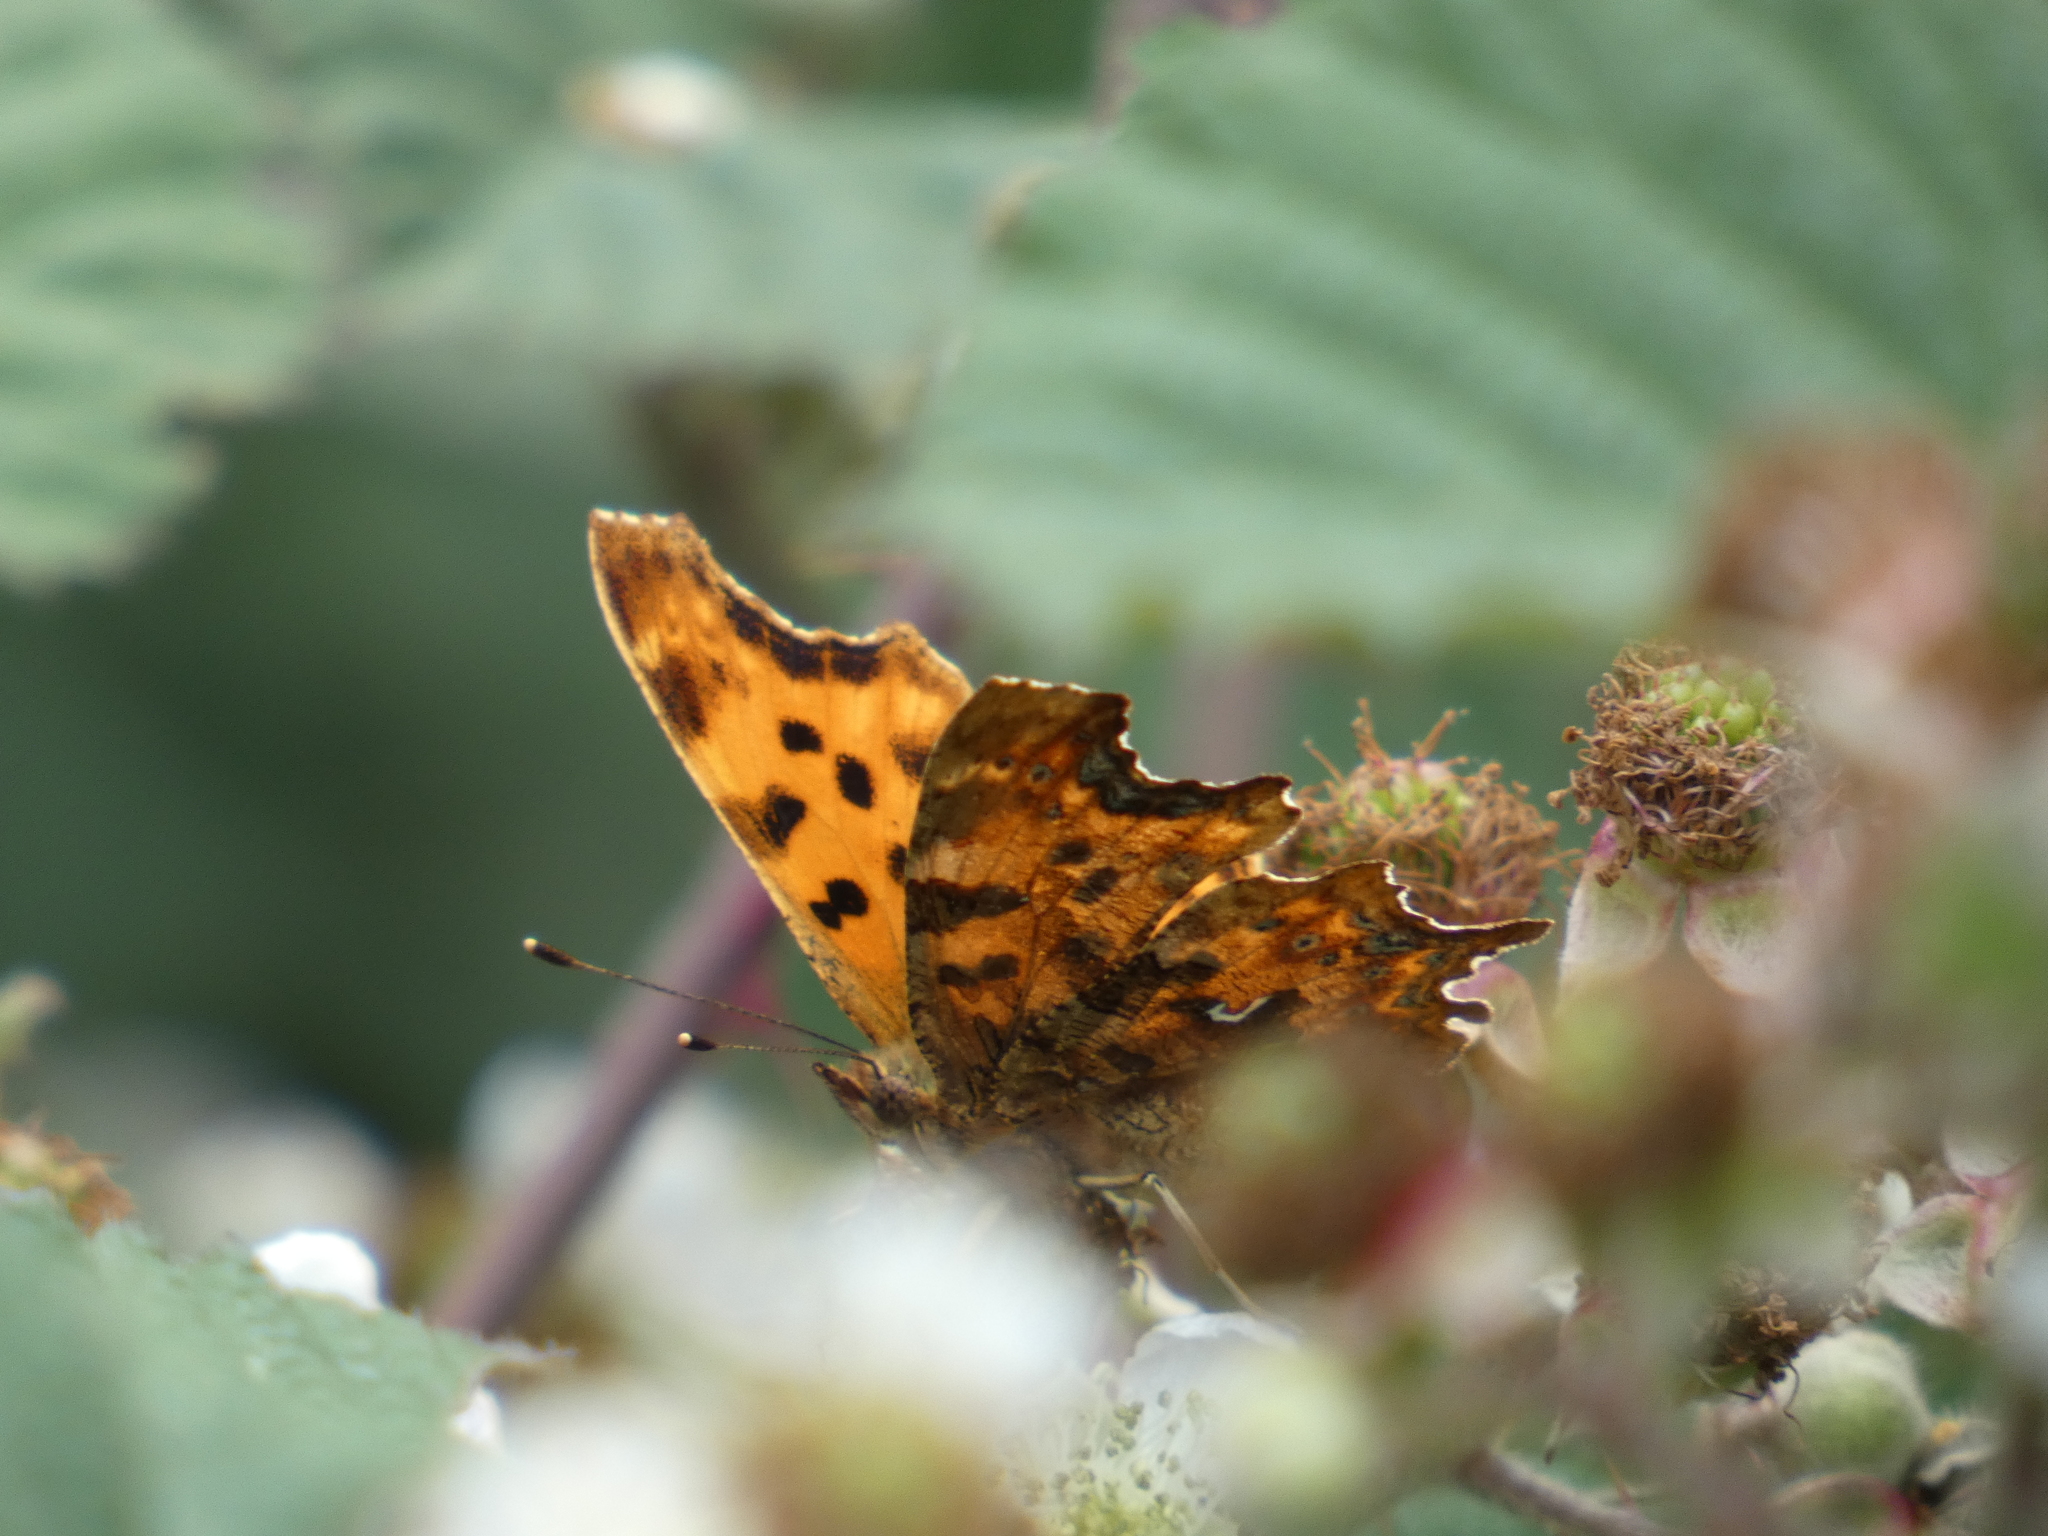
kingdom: Animalia
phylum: Arthropoda
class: Insecta
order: Lepidoptera
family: Nymphalidae
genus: Polygonia
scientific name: Polygonia c-album
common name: Comma
